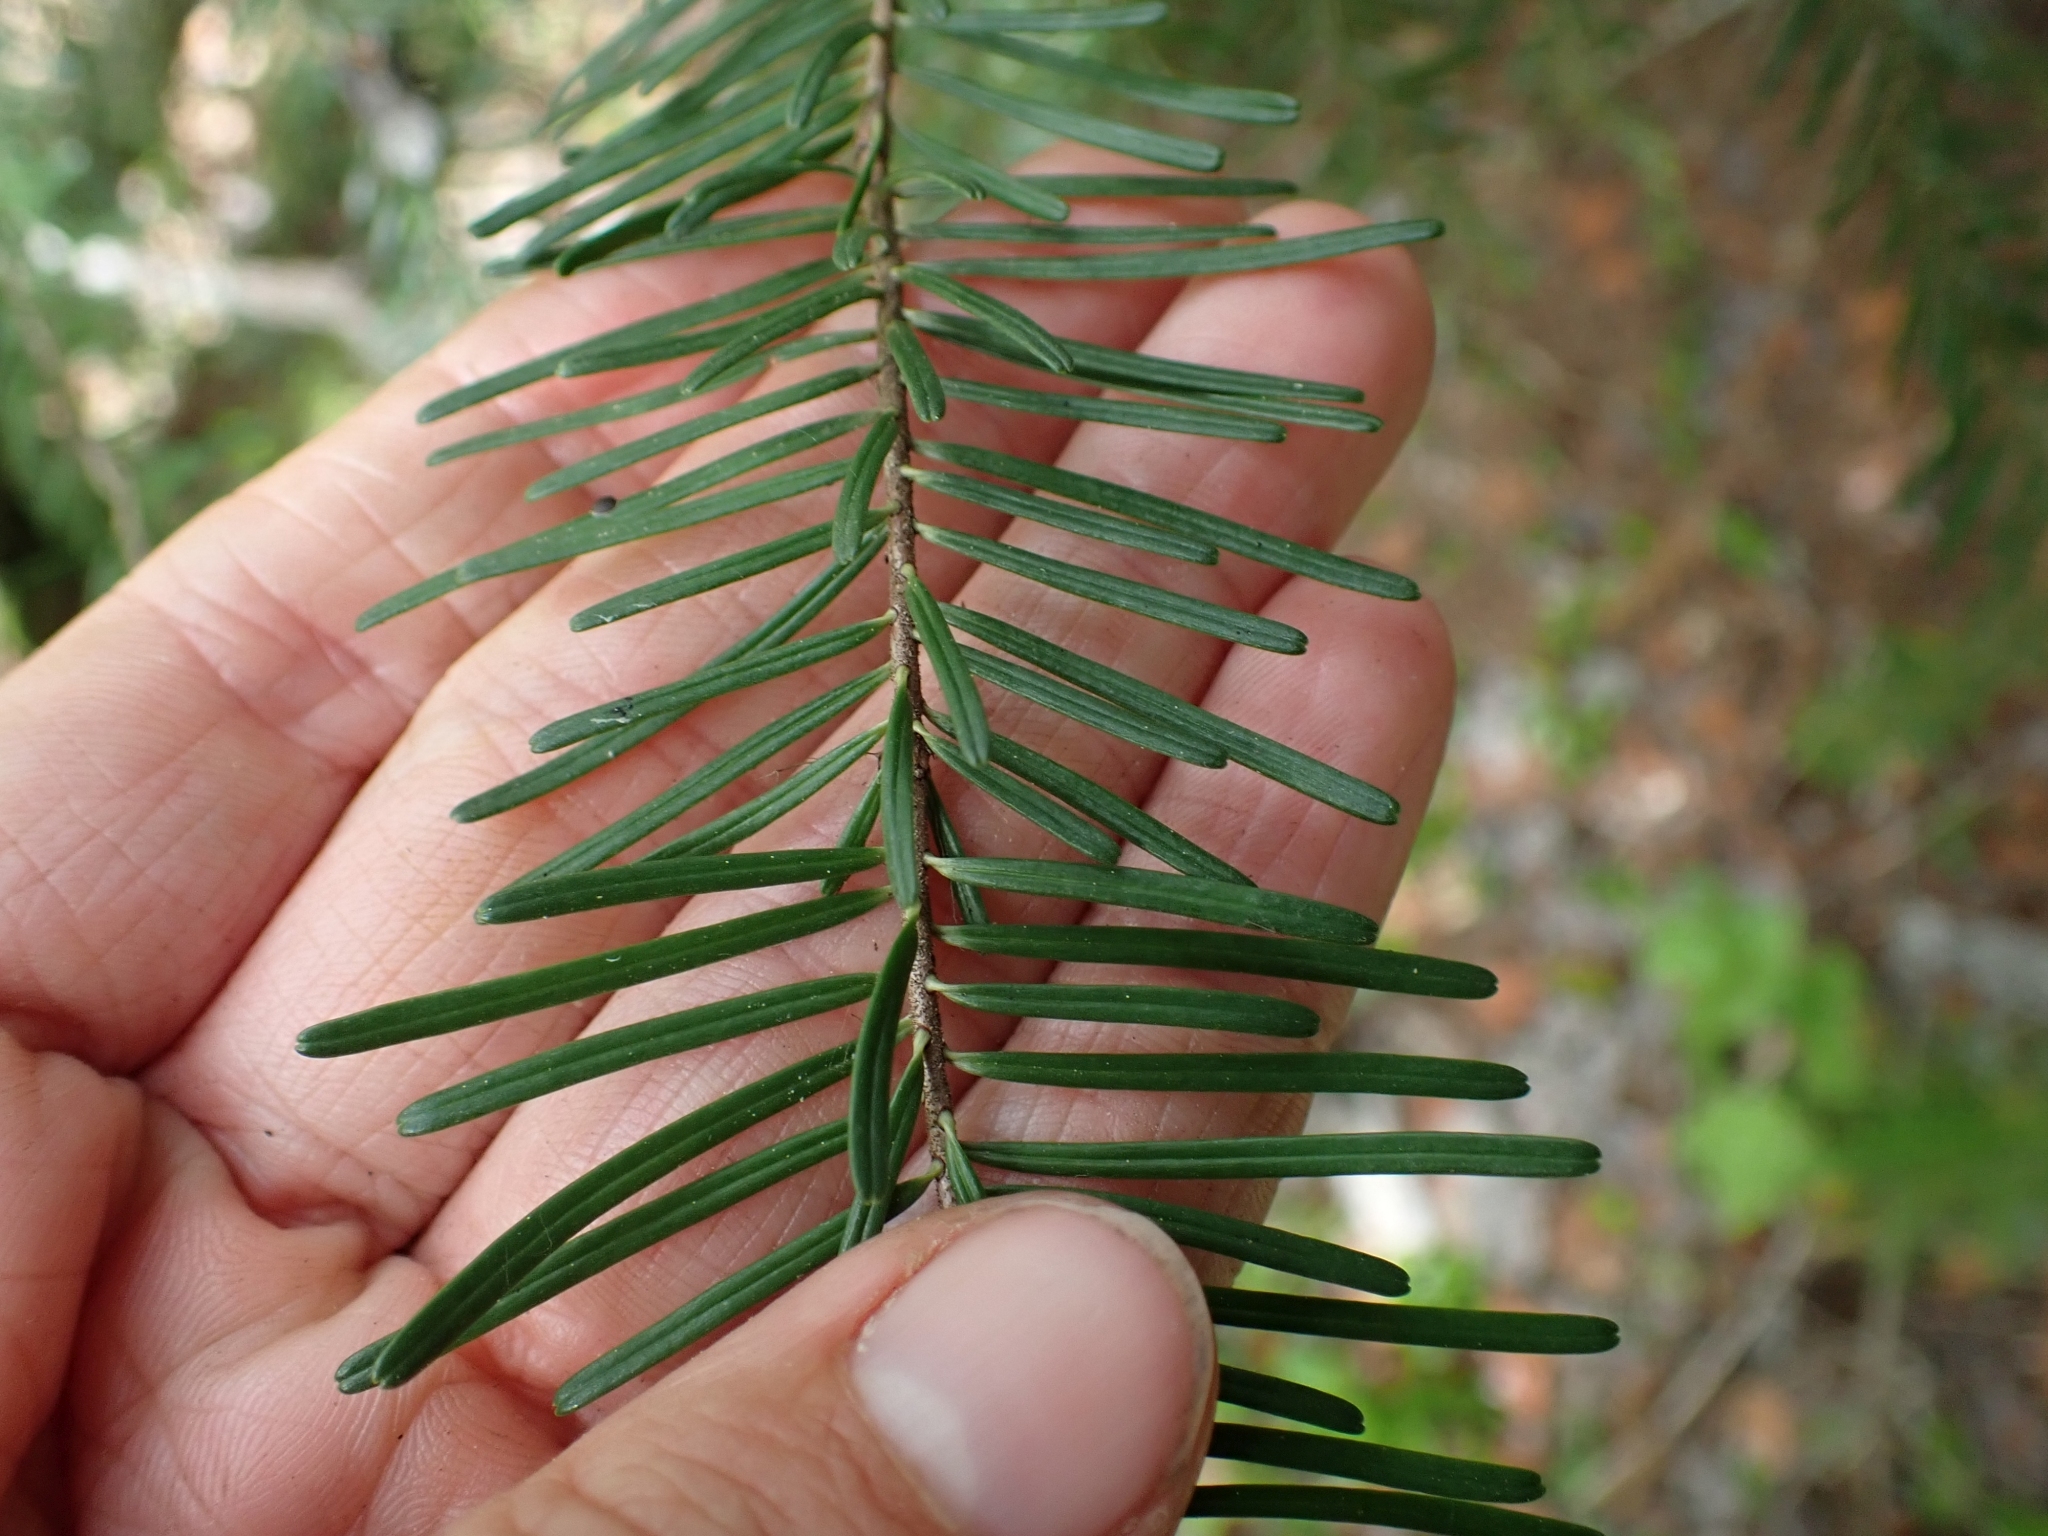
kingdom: Plantae
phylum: Tracheophyta
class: Pinopsida
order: Pinales
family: Pinaceae
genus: Abies
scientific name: Abies amabilis
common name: Pacific silver fir
